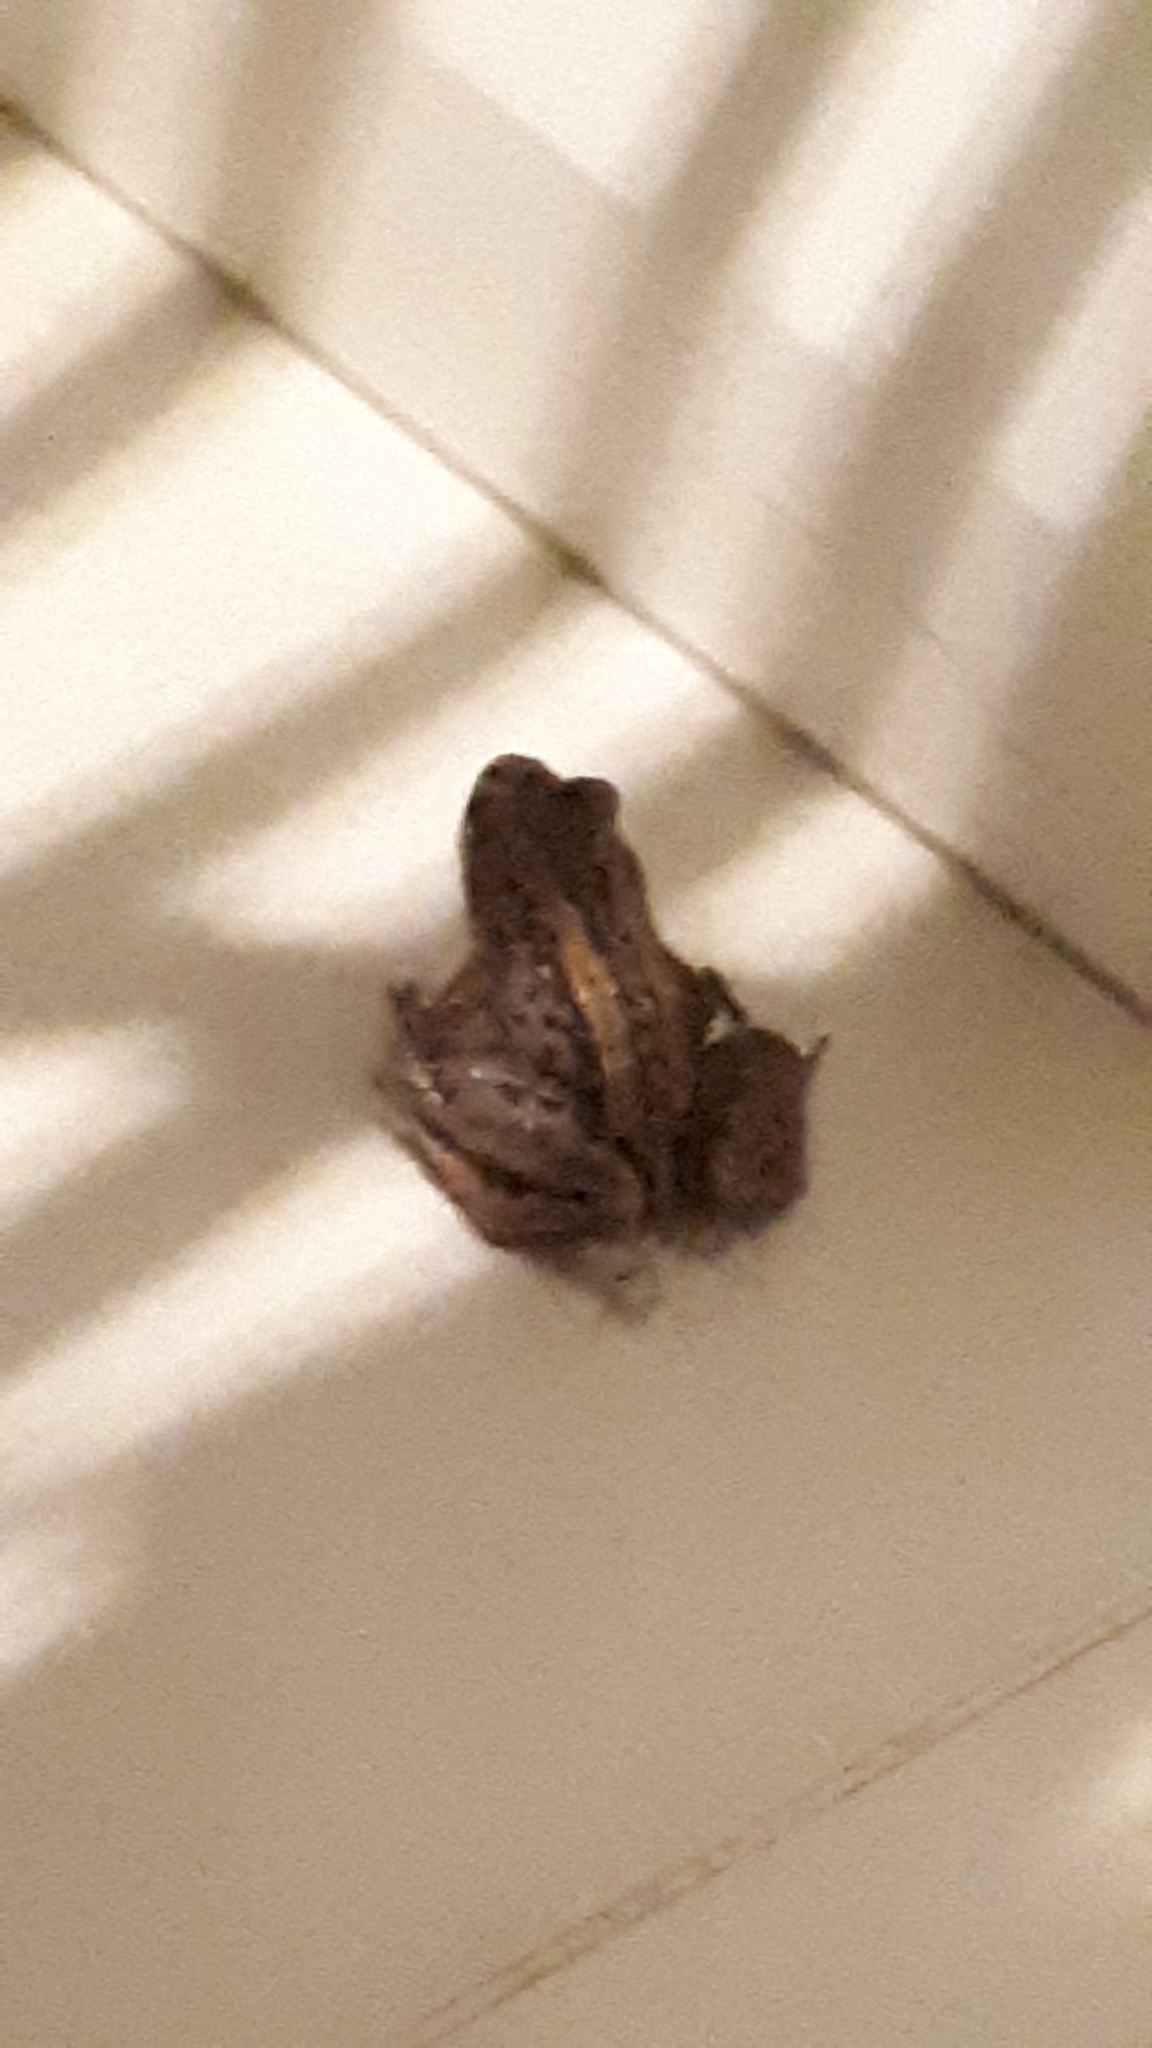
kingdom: Animalia
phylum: Chordata
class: Amphibia
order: Anura
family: Pelodryadidae
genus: Litoria
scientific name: Litoria verreauxii
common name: Alpine tree frog
